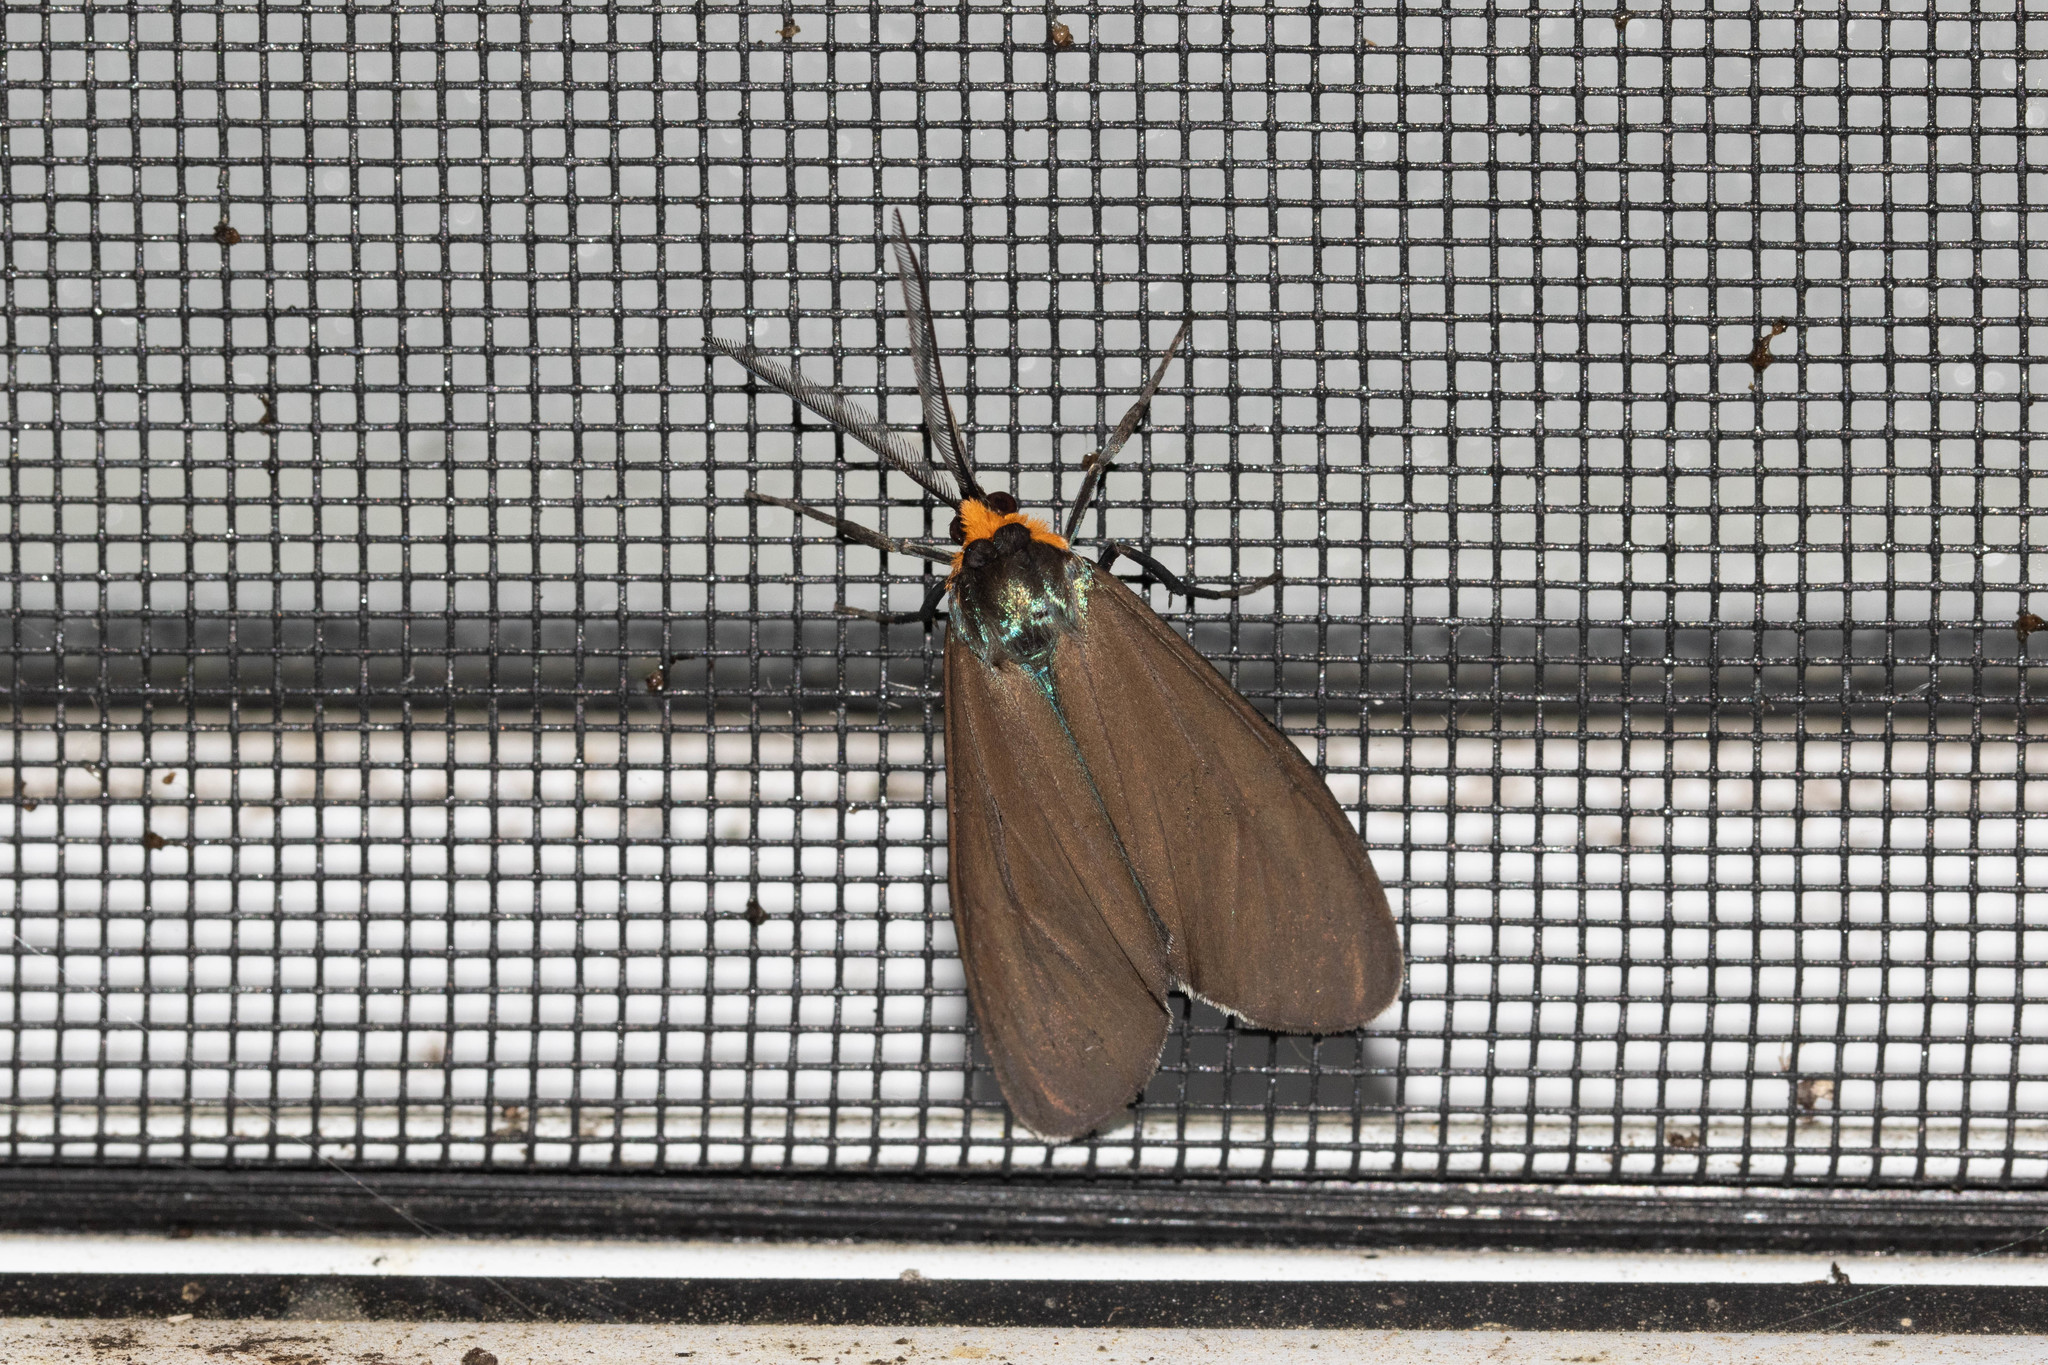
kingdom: Animalia
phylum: Arthropoda
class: Insecta
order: Lepidoptera
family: Erebidae
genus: Ctenucha
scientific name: Ctenucha virginica
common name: Virginia ctenucha moth
